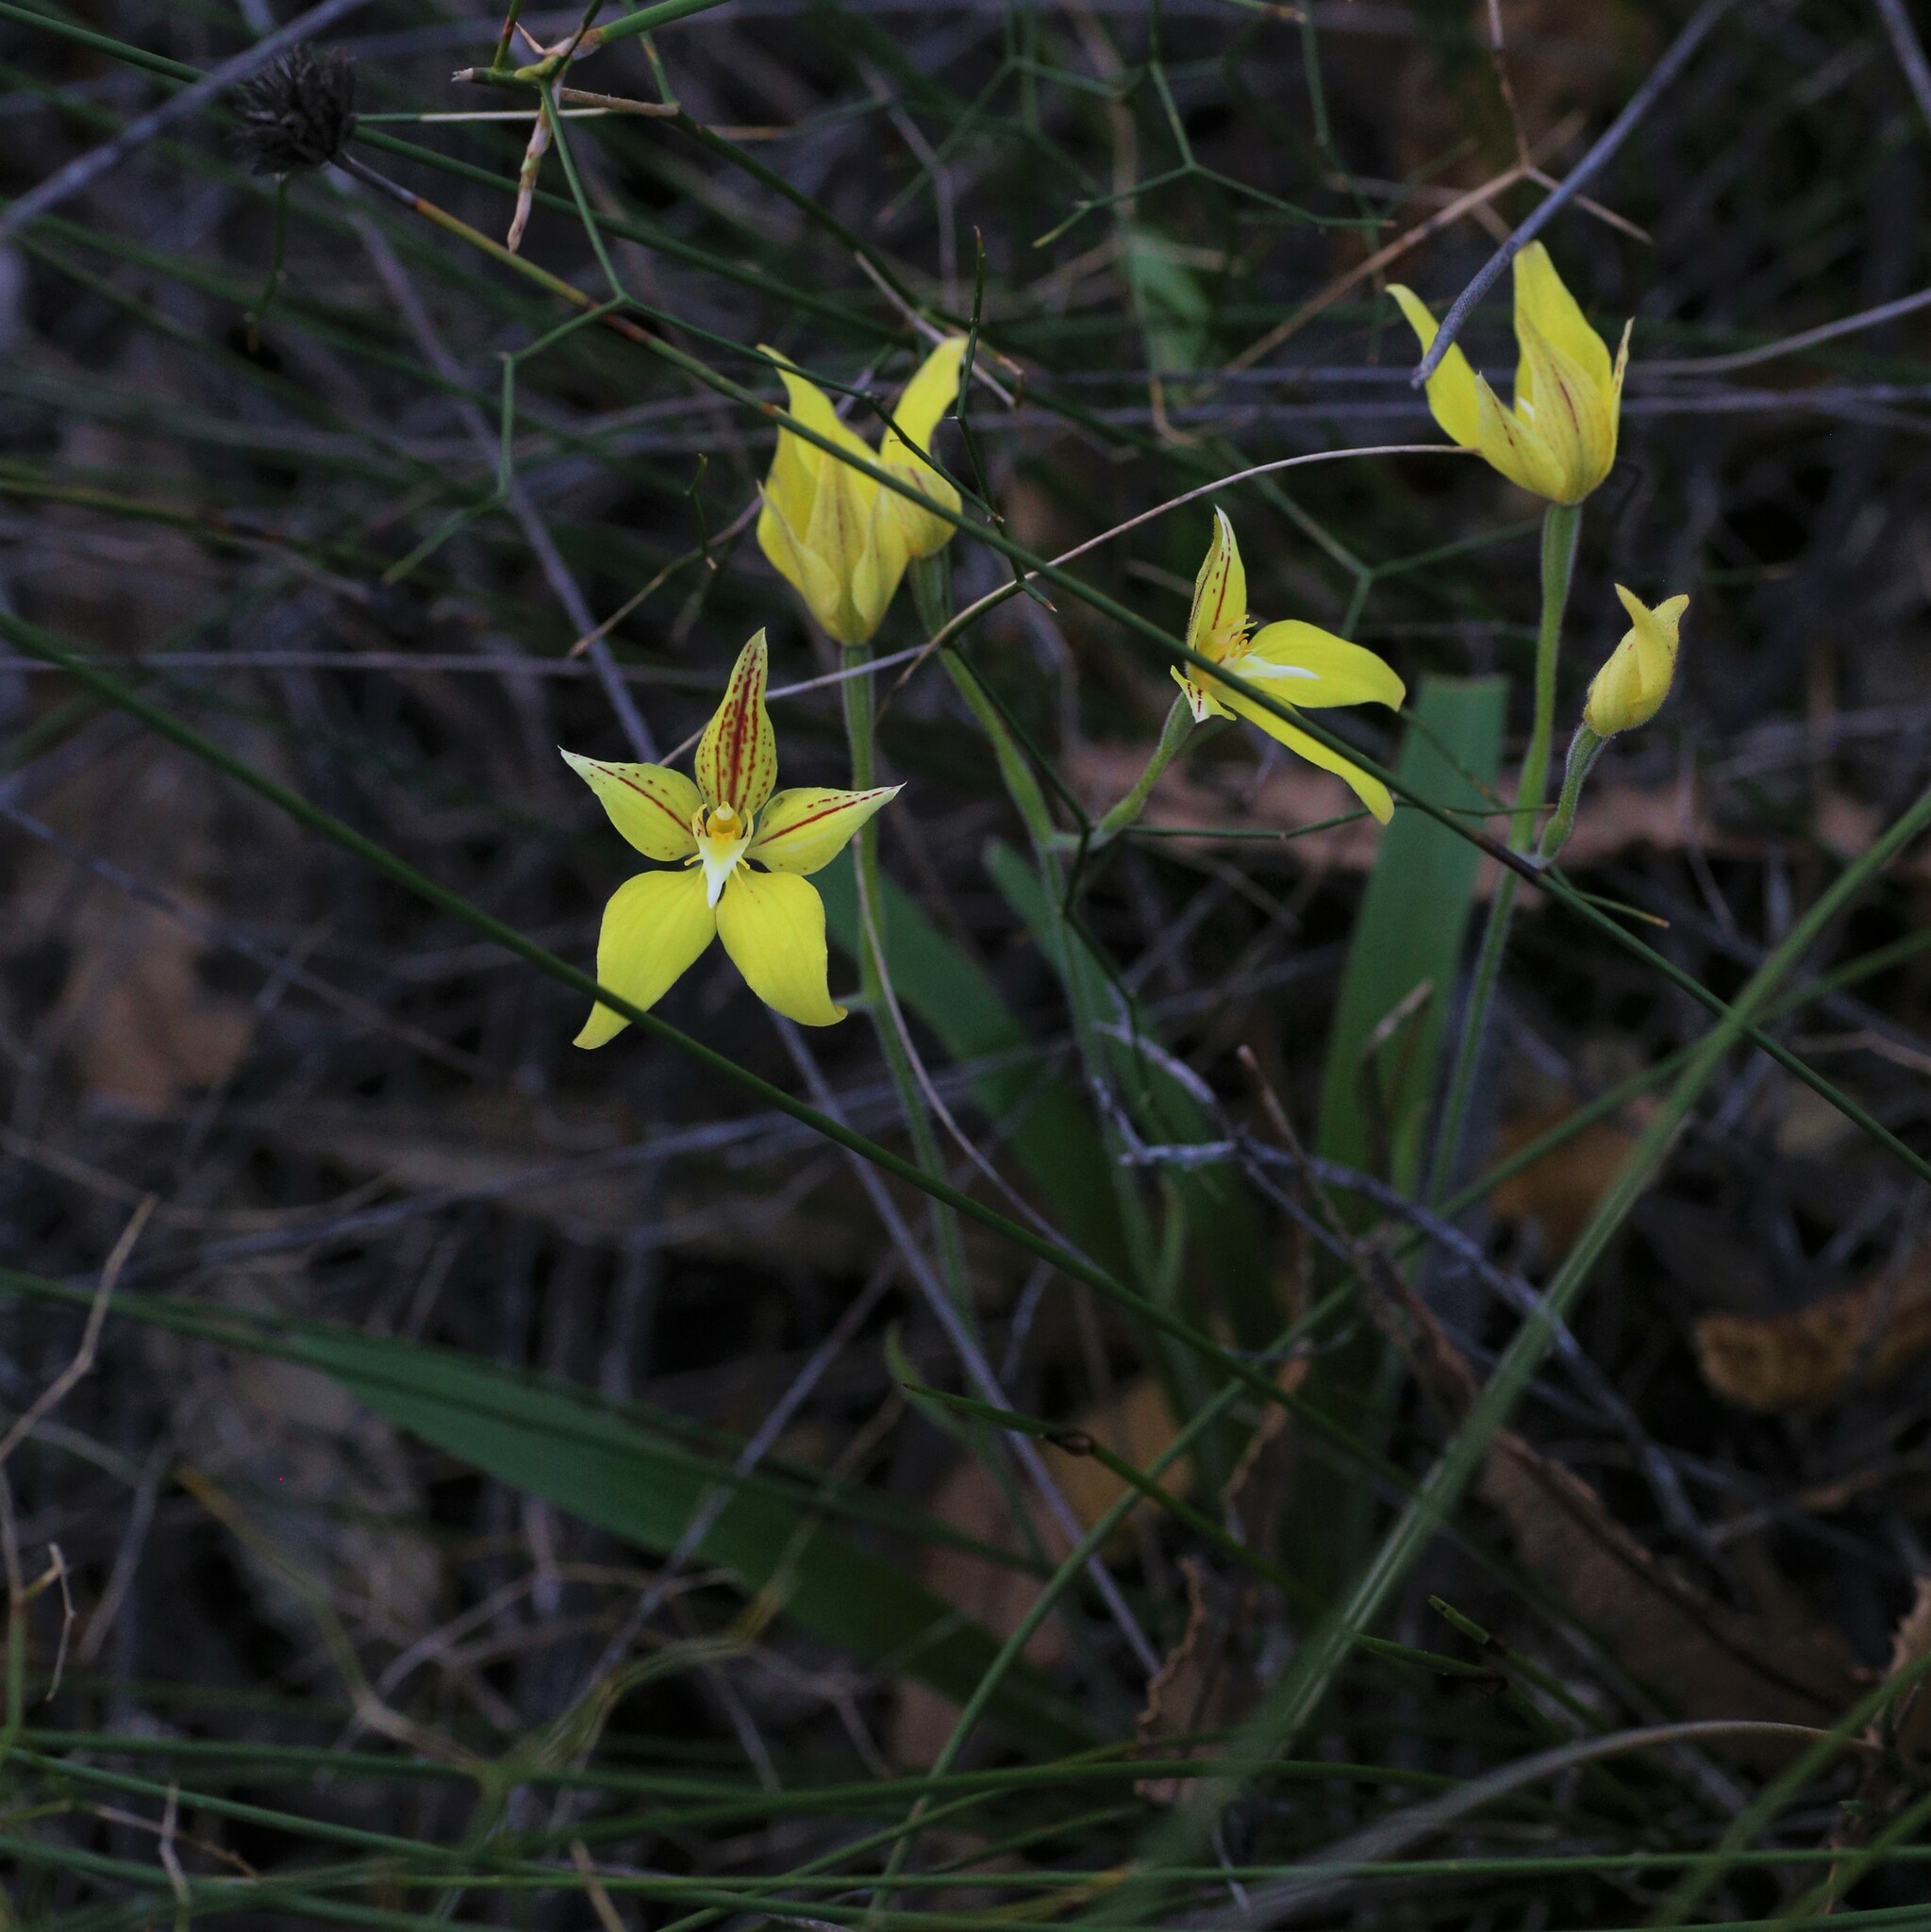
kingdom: Plantae
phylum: Tracheophyta
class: Liliopsida
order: Asparagales
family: Orchidaceae
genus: Caladenia
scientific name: Caladenia flava
